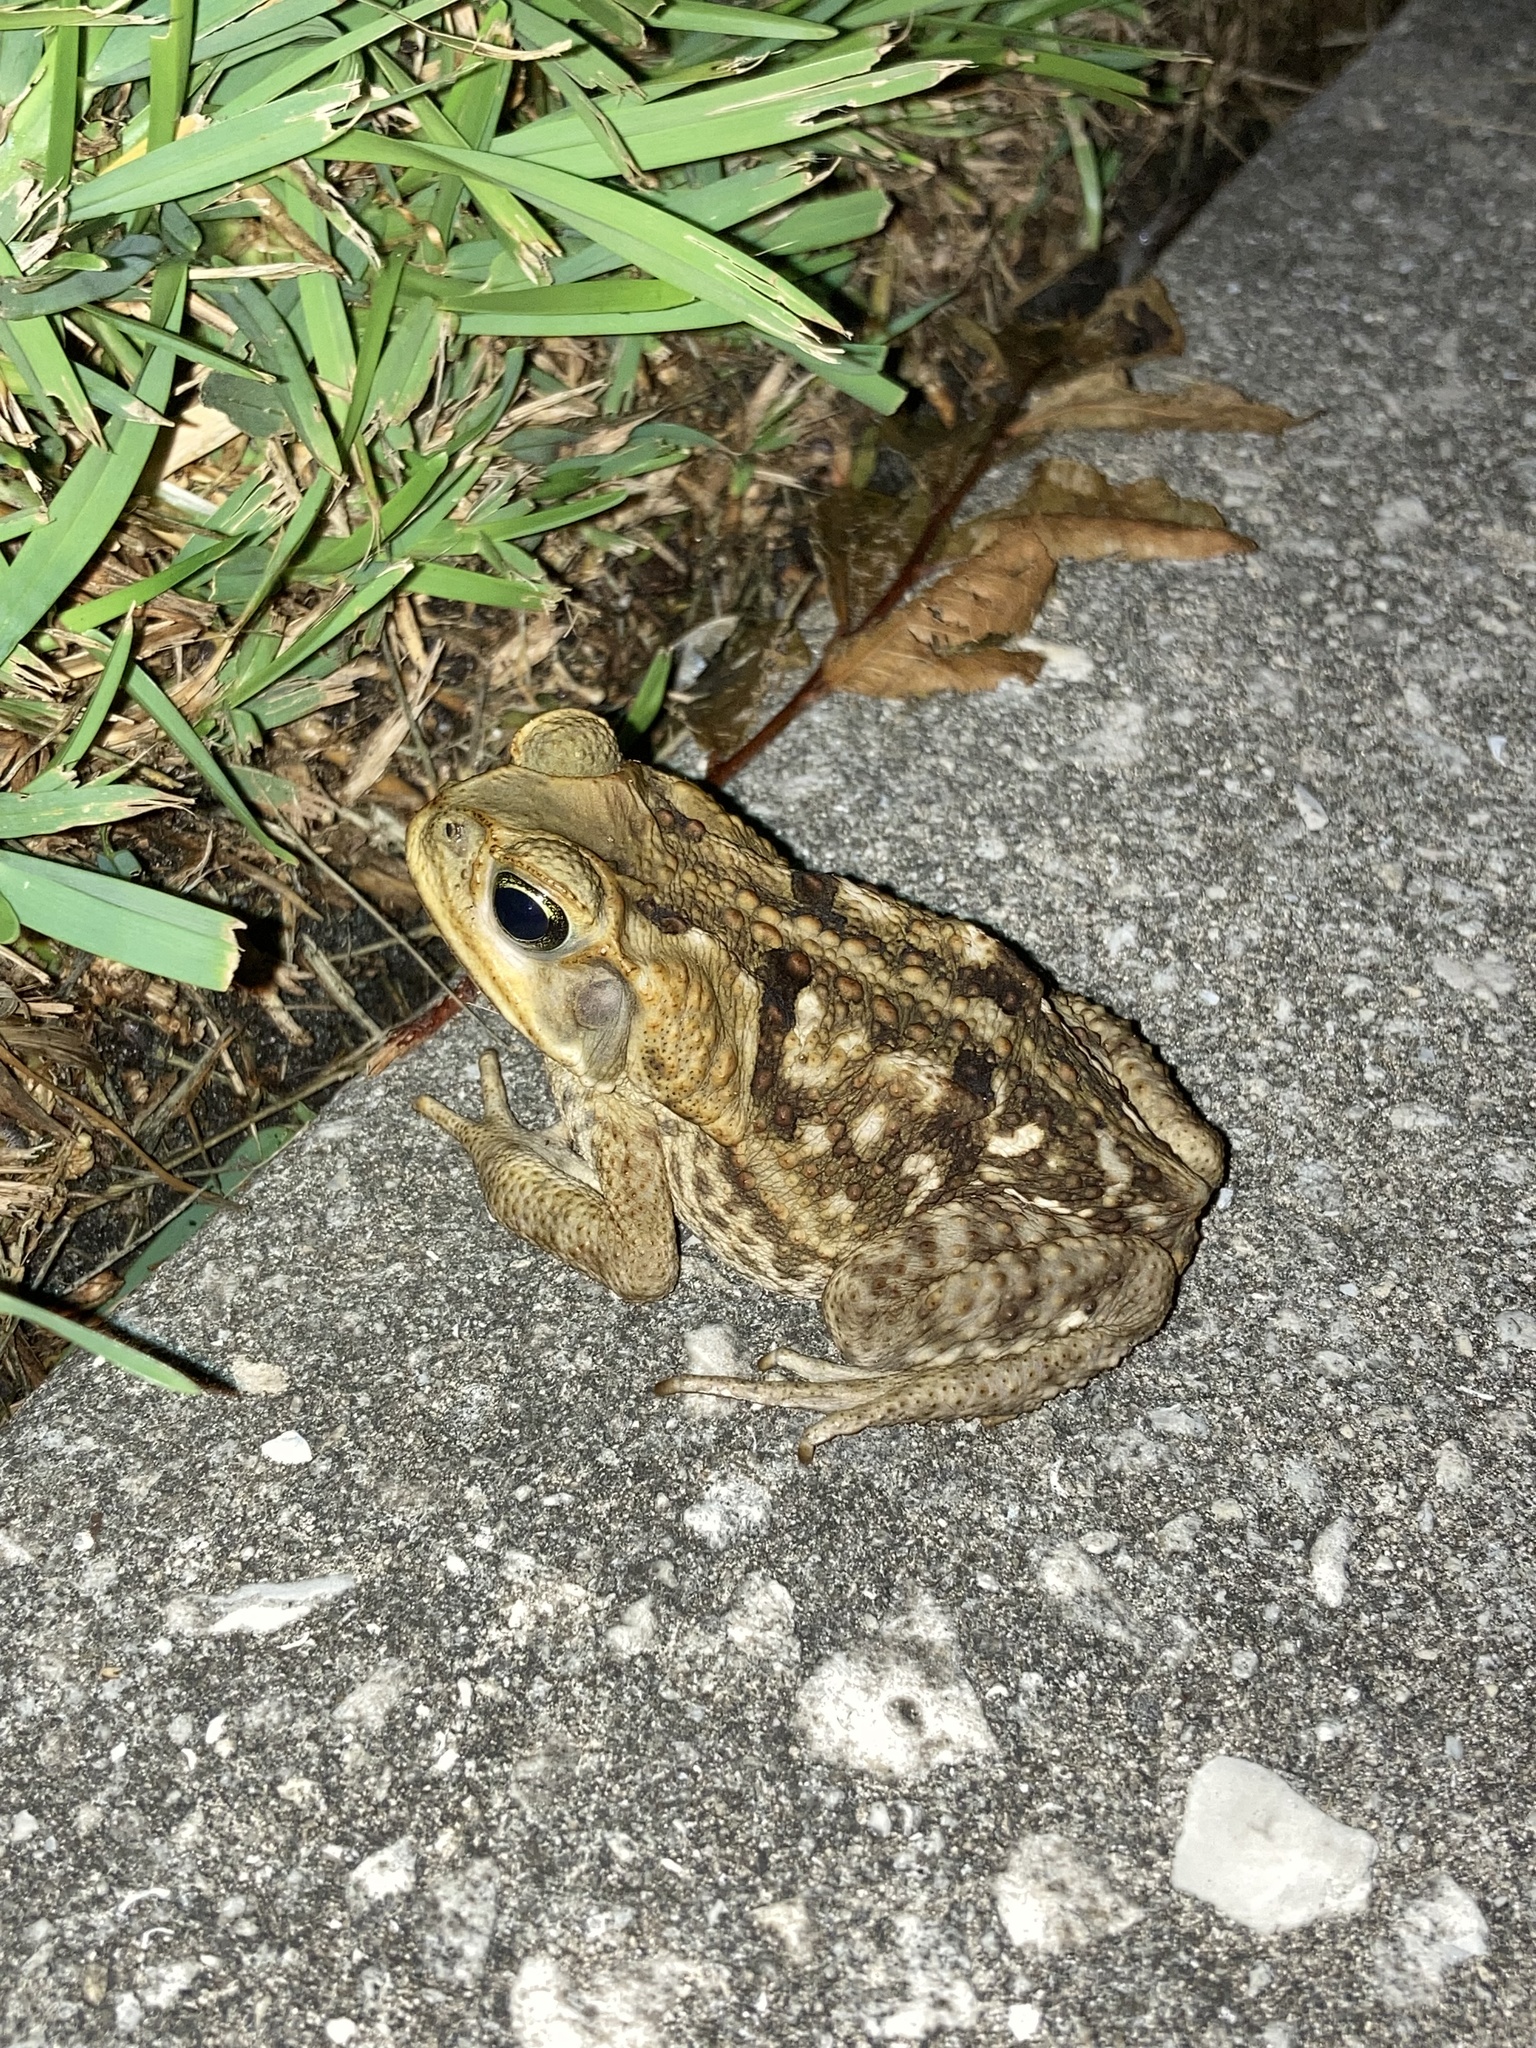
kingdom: Animalia
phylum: Chordata
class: Amphibia
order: Anura
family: Bufonidae
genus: Rhinella
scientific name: Rhinella marina
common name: Cane toad
